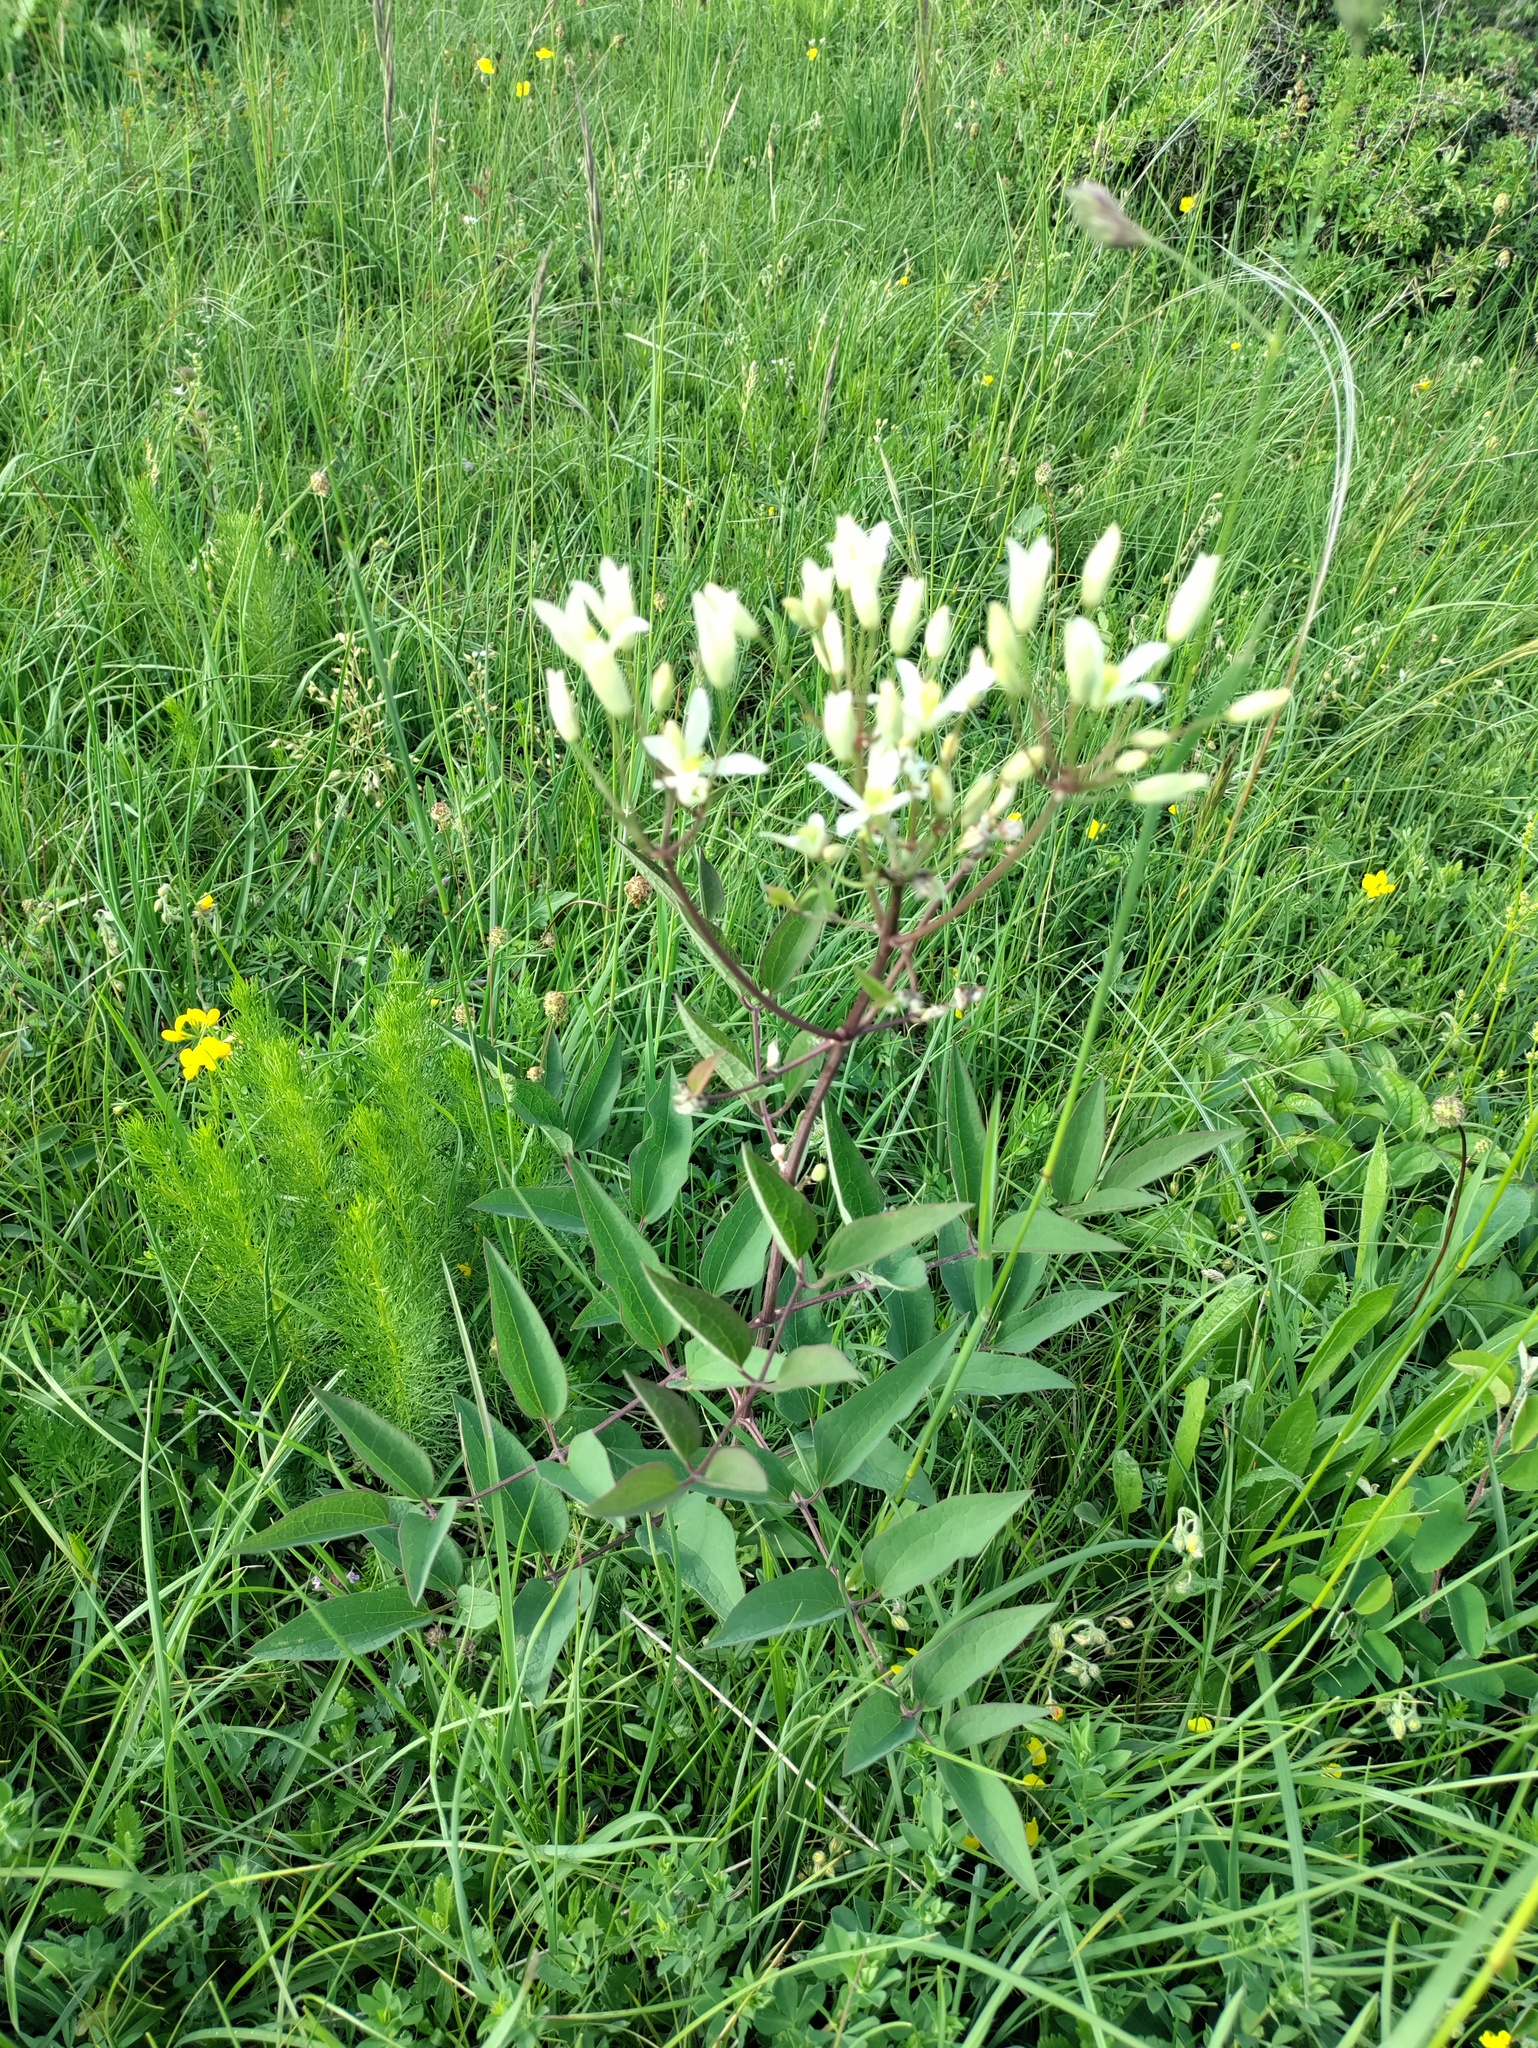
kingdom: Plantae
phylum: Tracheophyta
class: Magnoliopsida
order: Ranunculales
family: Ranunculaceae
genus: Clematis
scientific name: Clematis recta
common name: Ground clematis
